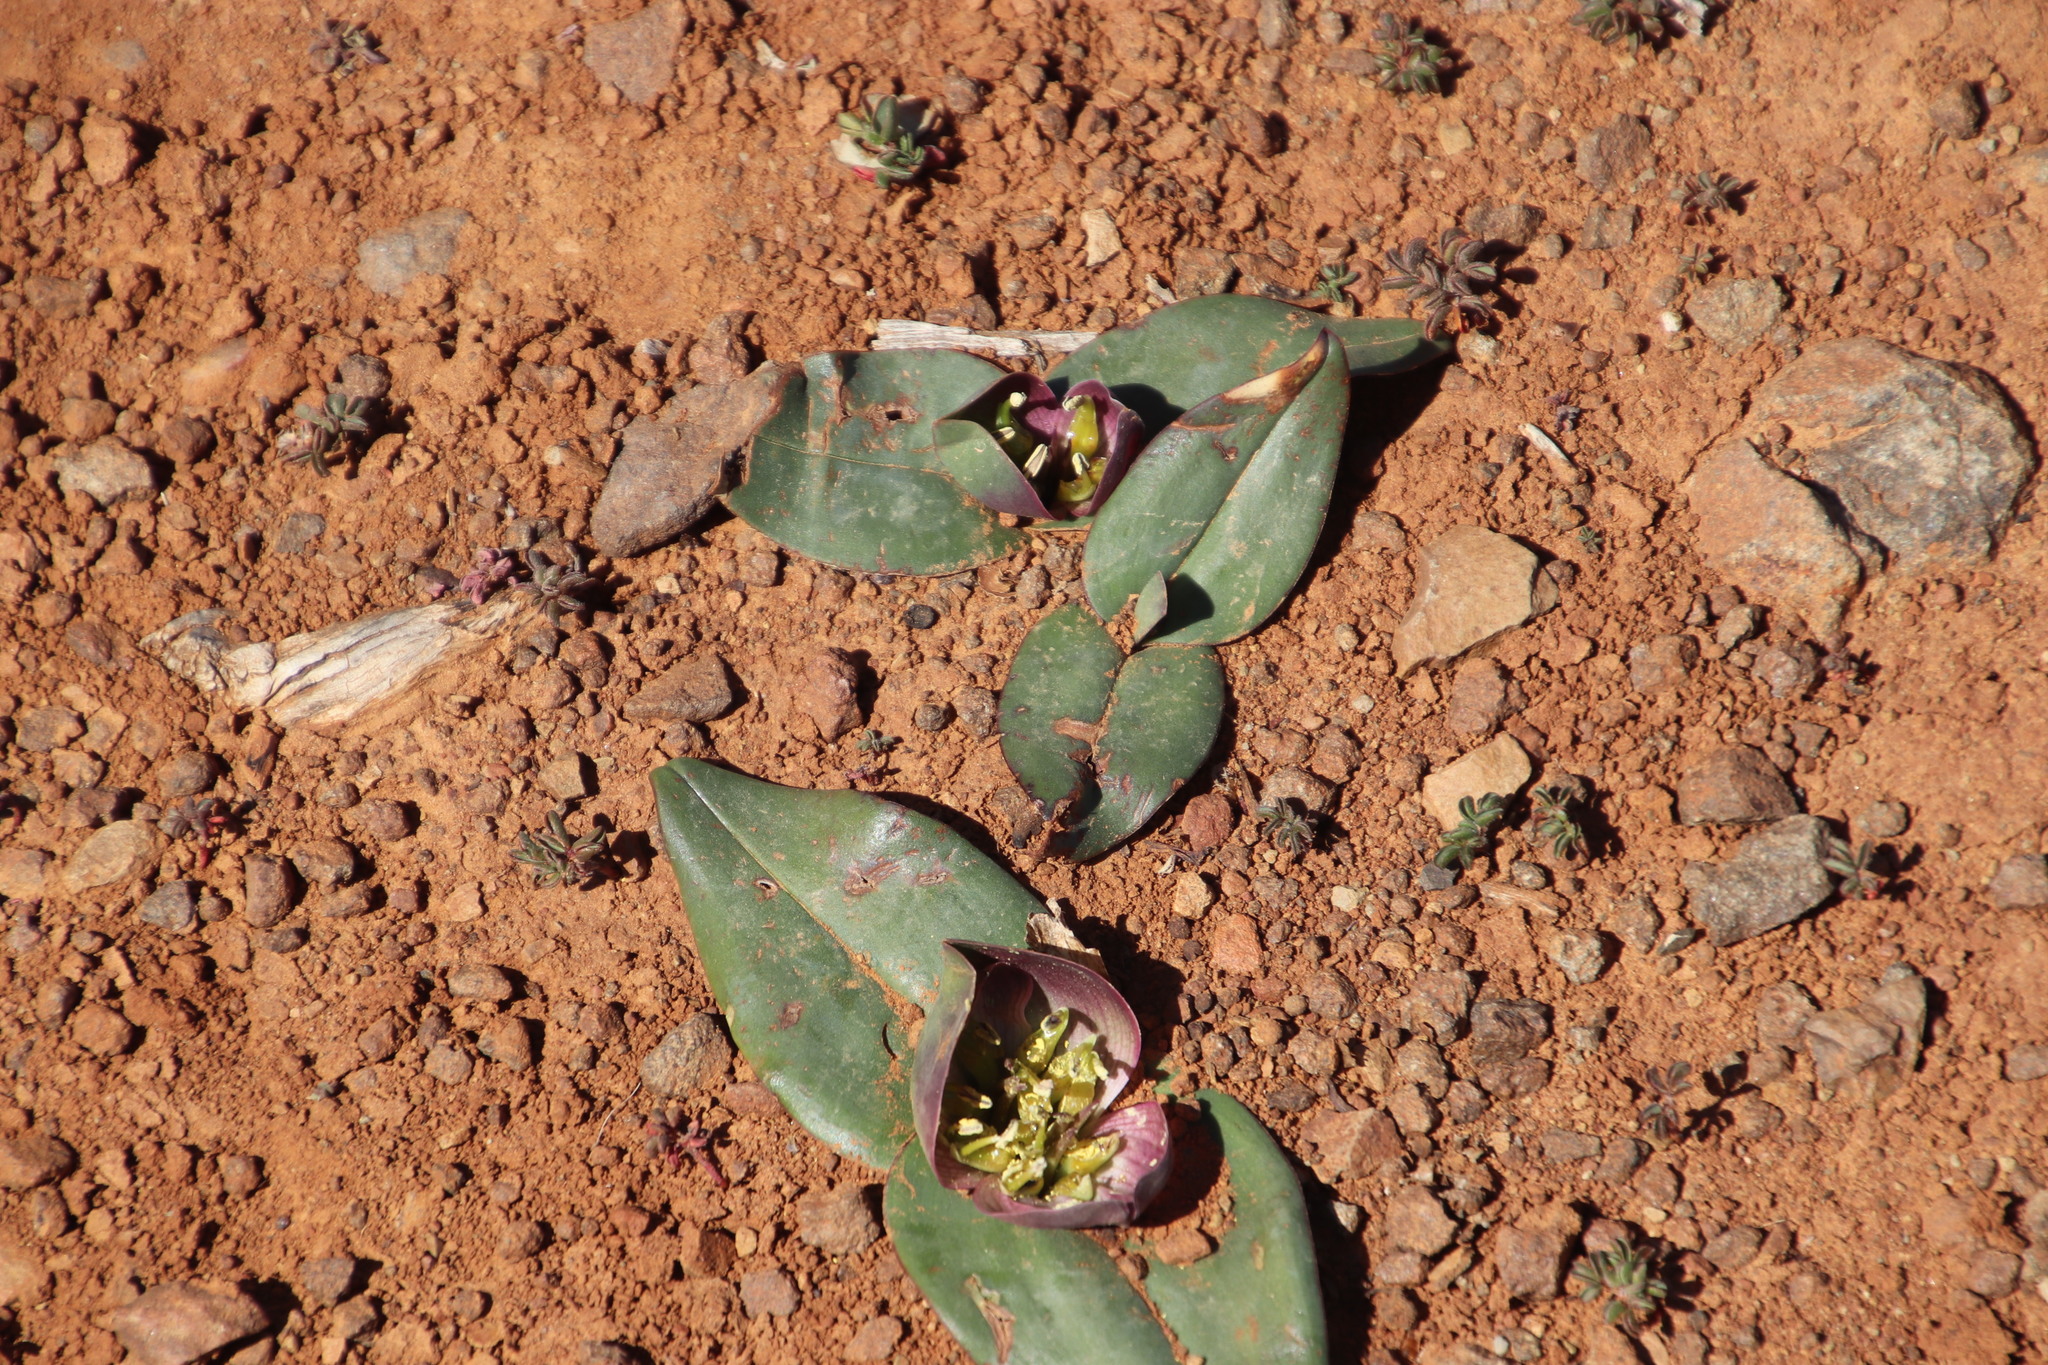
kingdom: Plantae
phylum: Tracheophyta
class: Liliopsida
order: Liliales
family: Colchicaceae
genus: Colchicum
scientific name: Colchicum burchellii
